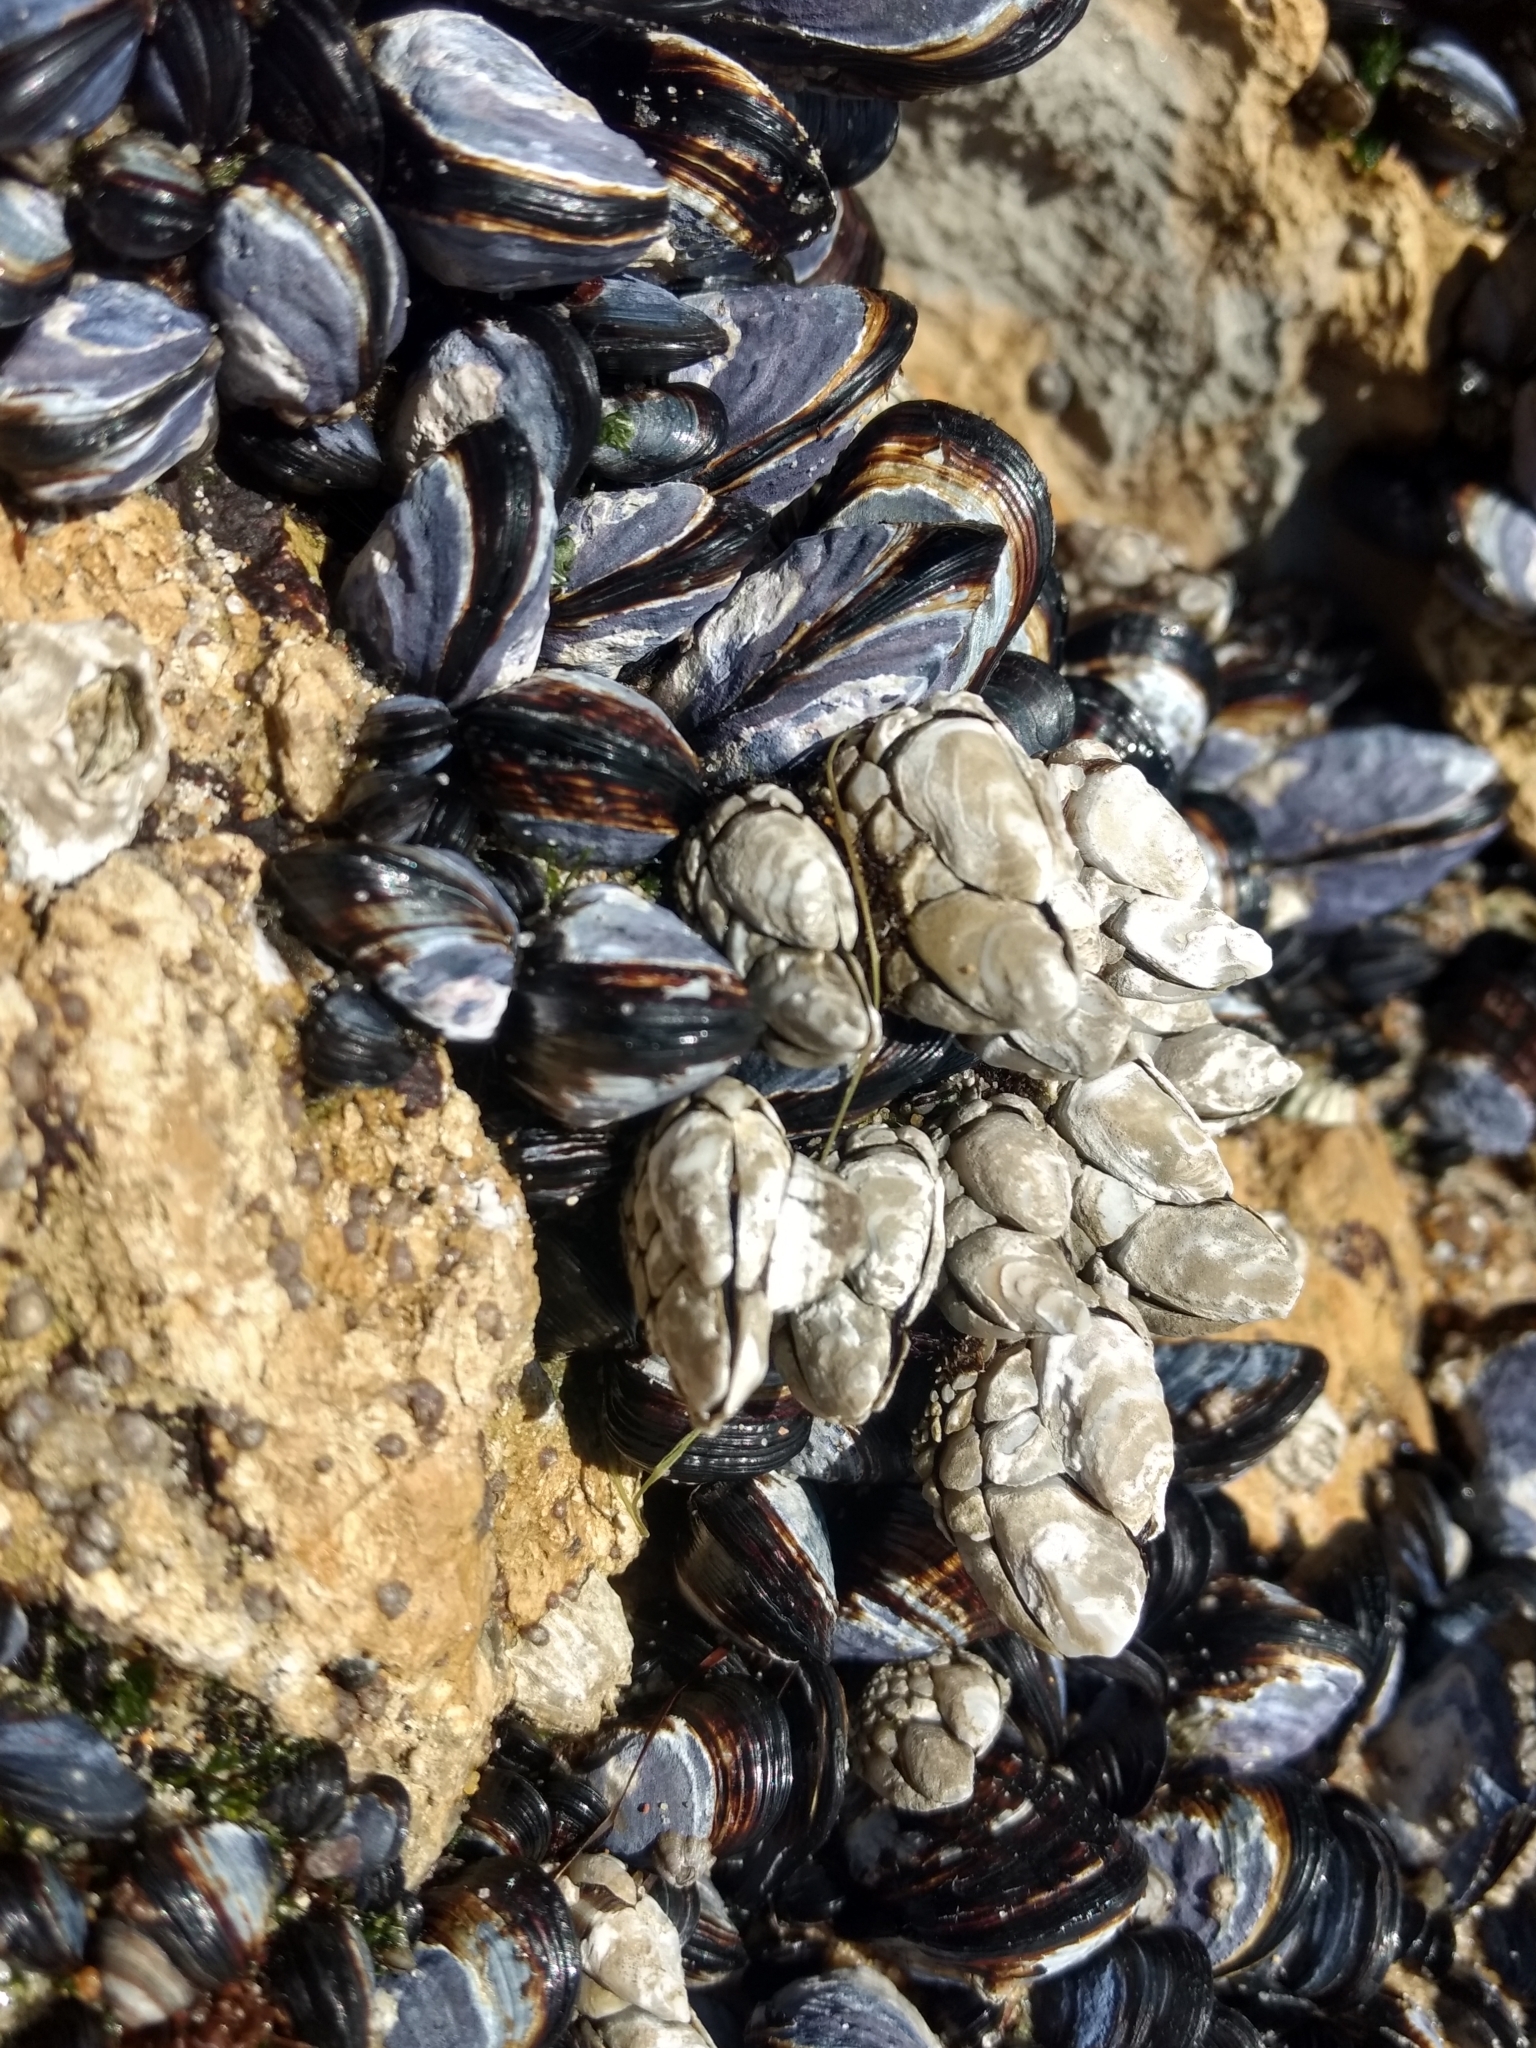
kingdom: Animalia
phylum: Arthropoda
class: Maxillopoda
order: Pedunculata
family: Pollicipedidae
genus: Pollicipes
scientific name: Pollicipes polymerus
